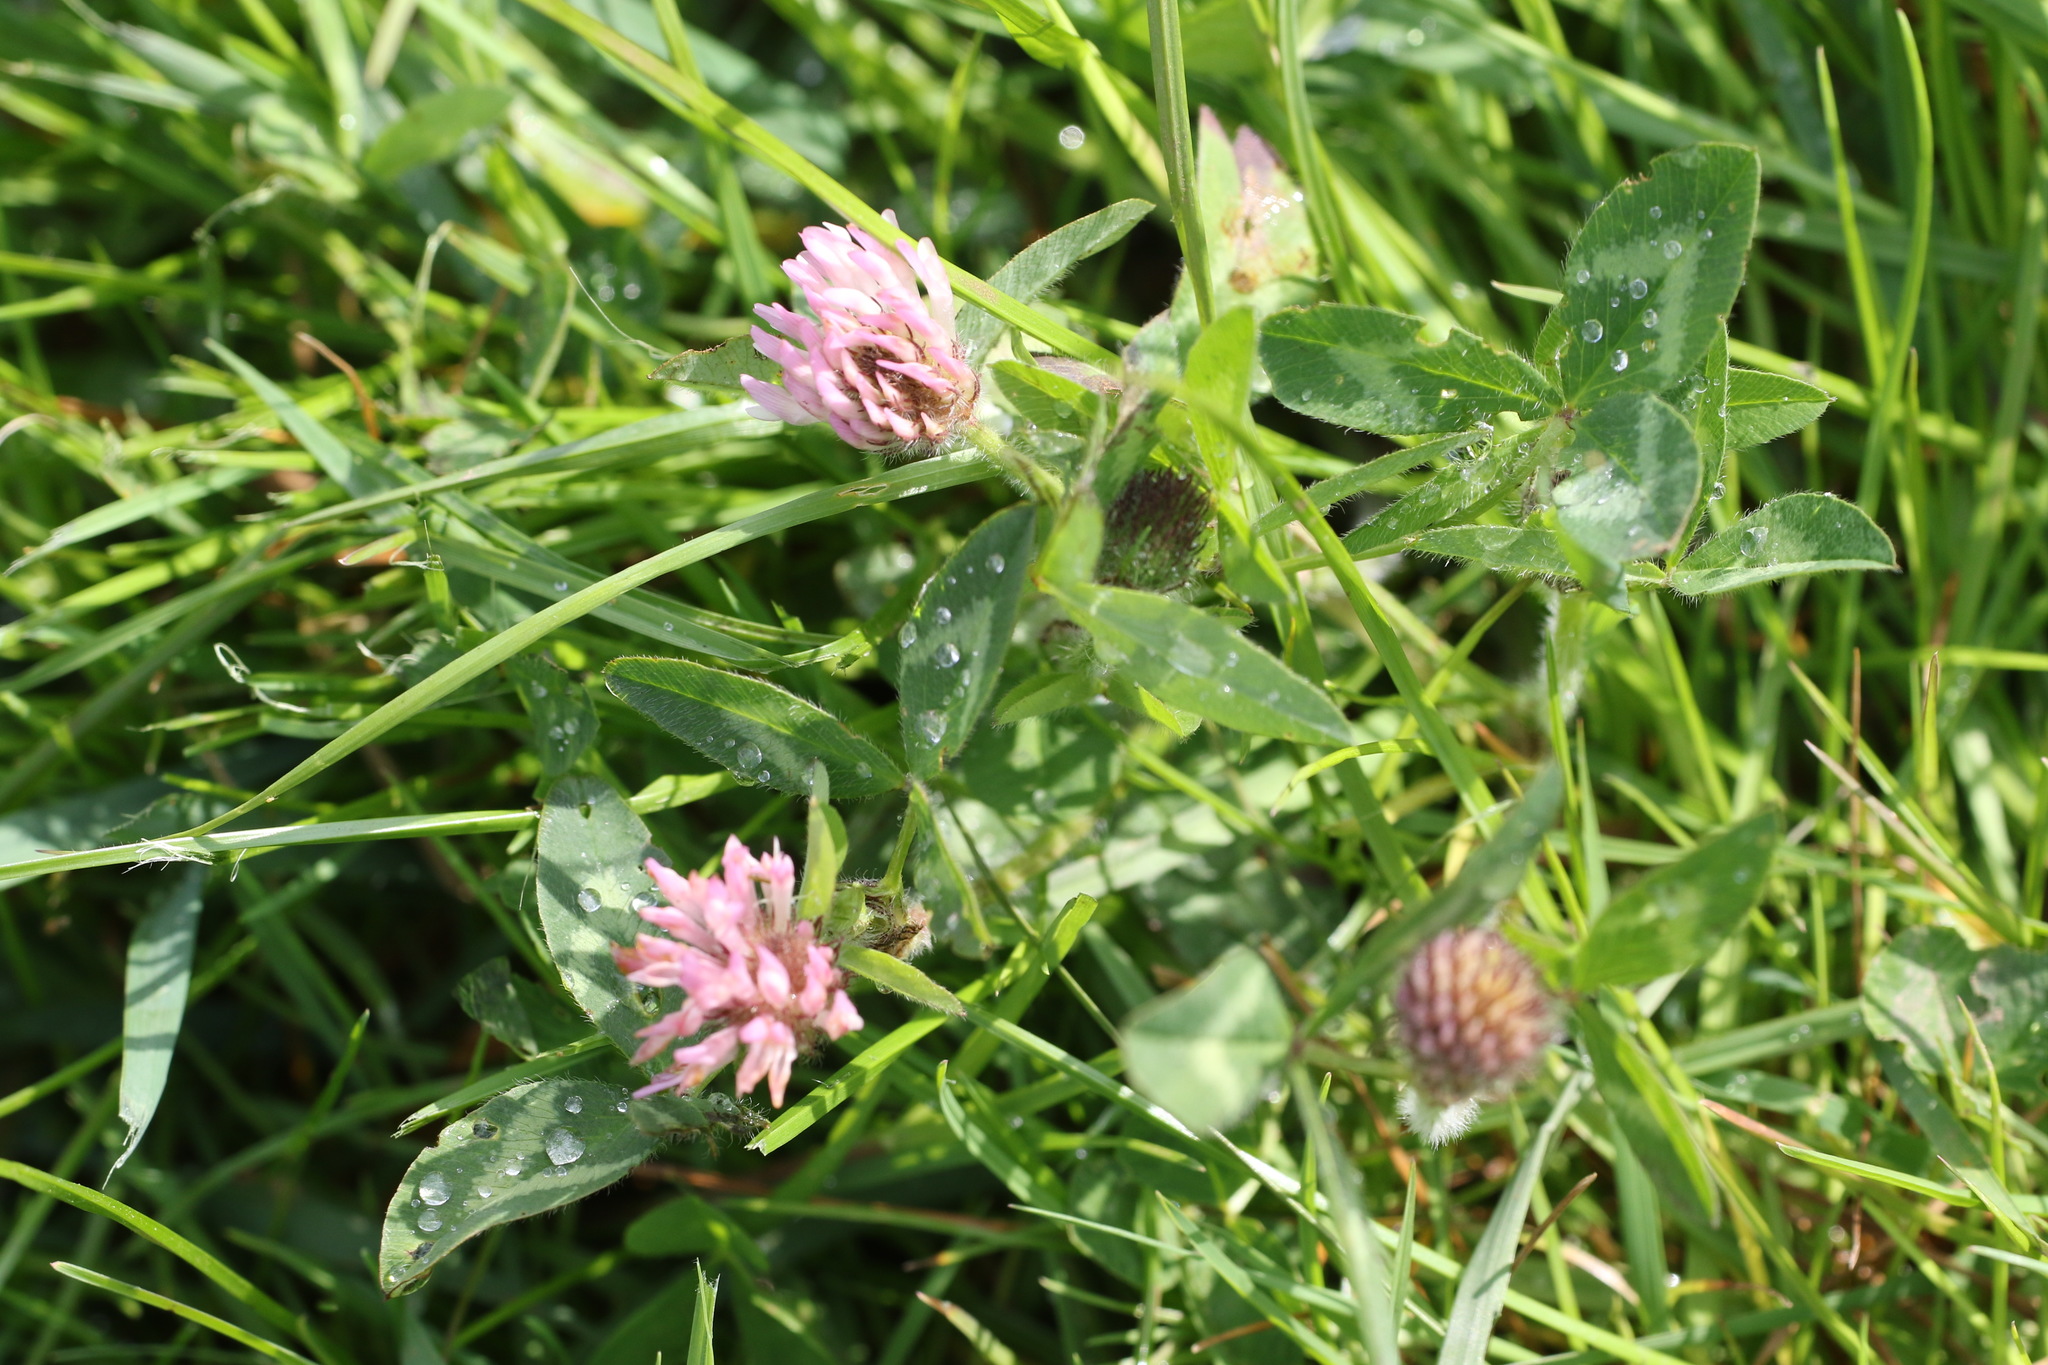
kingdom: Plantae
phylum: Tracheophyta
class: Magnoliopsida
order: Fabales
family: Fabaceae
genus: Trifolium
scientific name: Trifolium pratense
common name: Red clover
